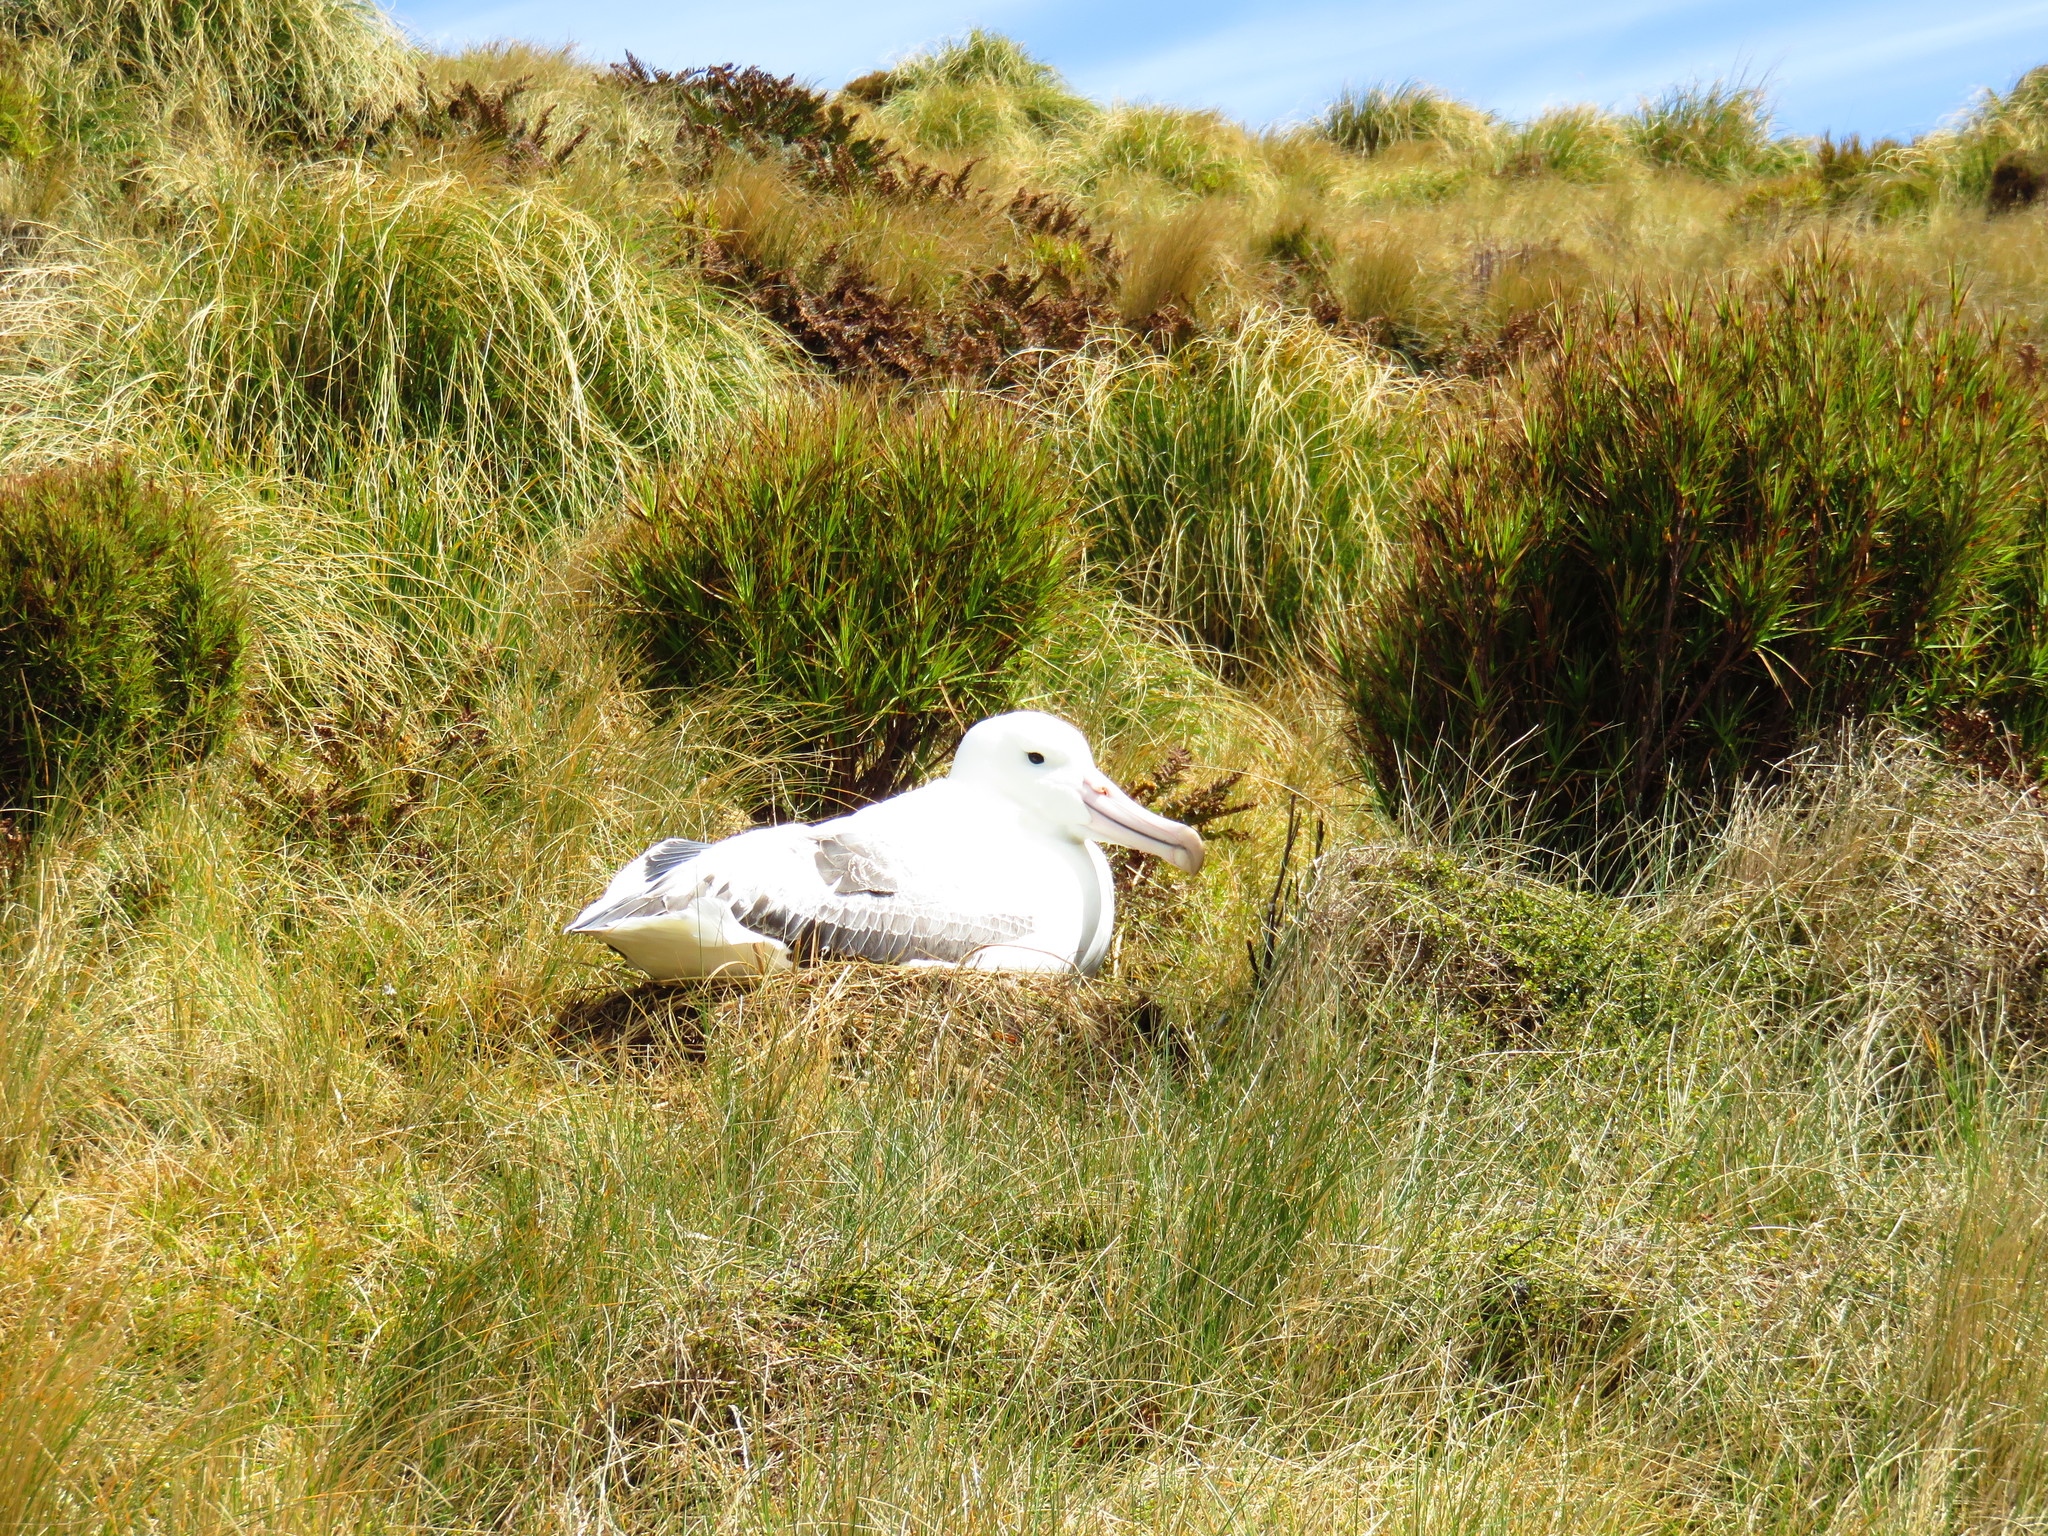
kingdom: Animalia
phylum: Chordata
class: Aves
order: Procellariiformes
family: Diomedeidae
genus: Diomedea
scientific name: Diomedea epomophora
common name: Southern royal albatross
